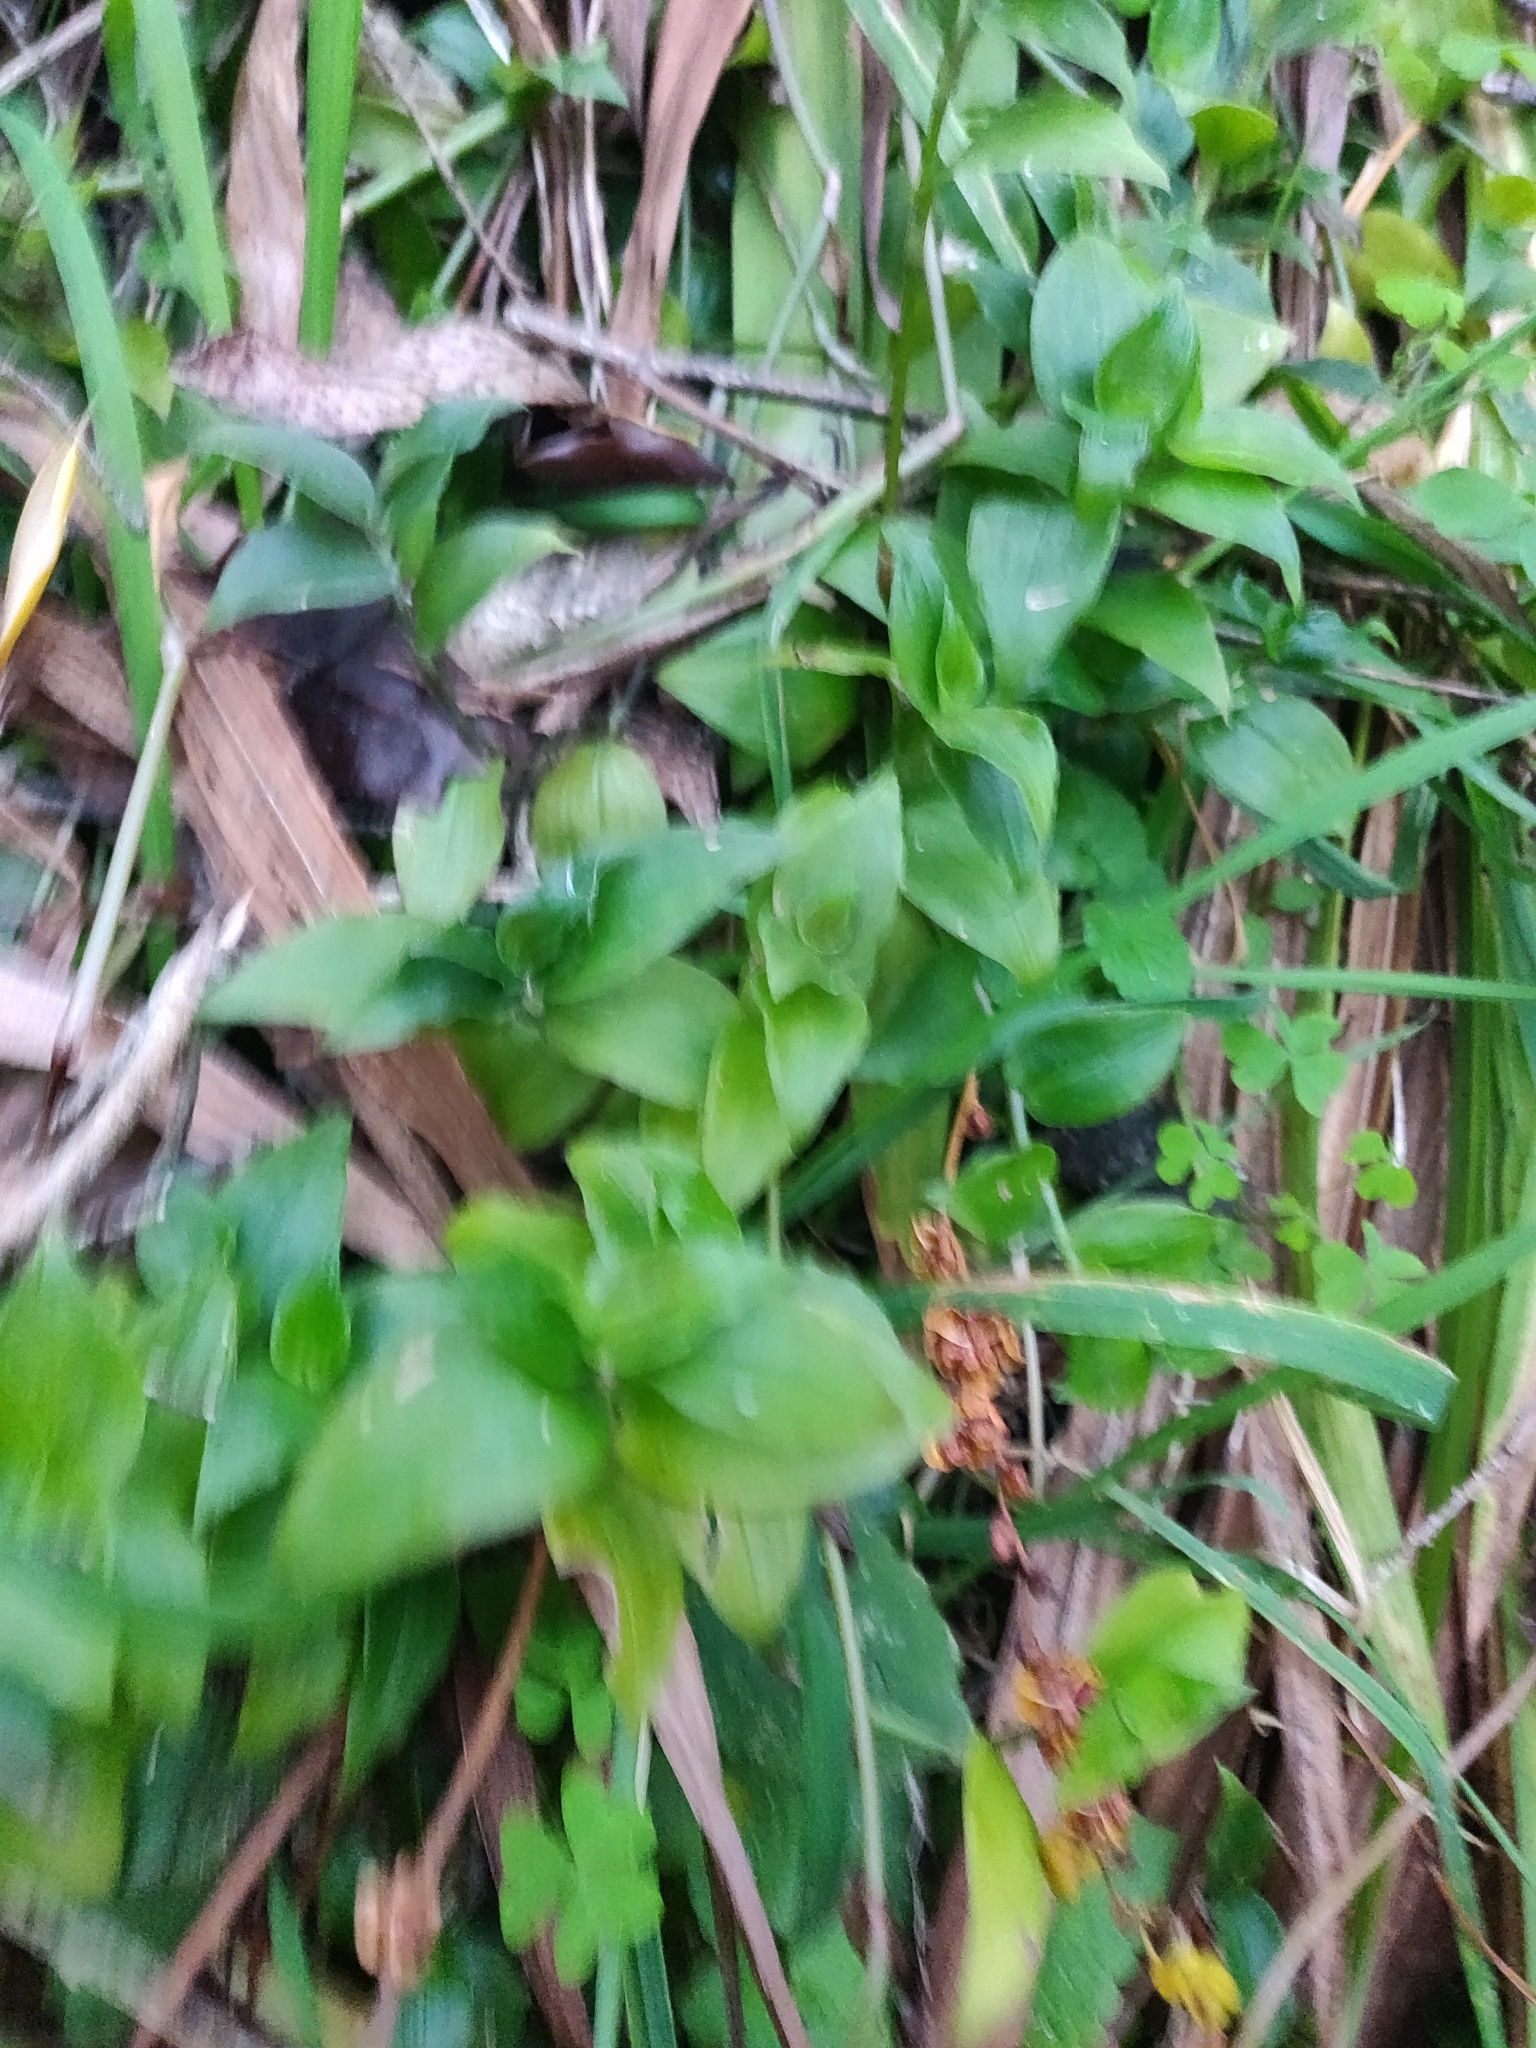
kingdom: Plantae
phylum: Tracheophyta
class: Liliopsida
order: Commelinales
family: Commelinaceae
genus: Tradescantia
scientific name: Tradescantia fluminensis
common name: Wandering-jew
